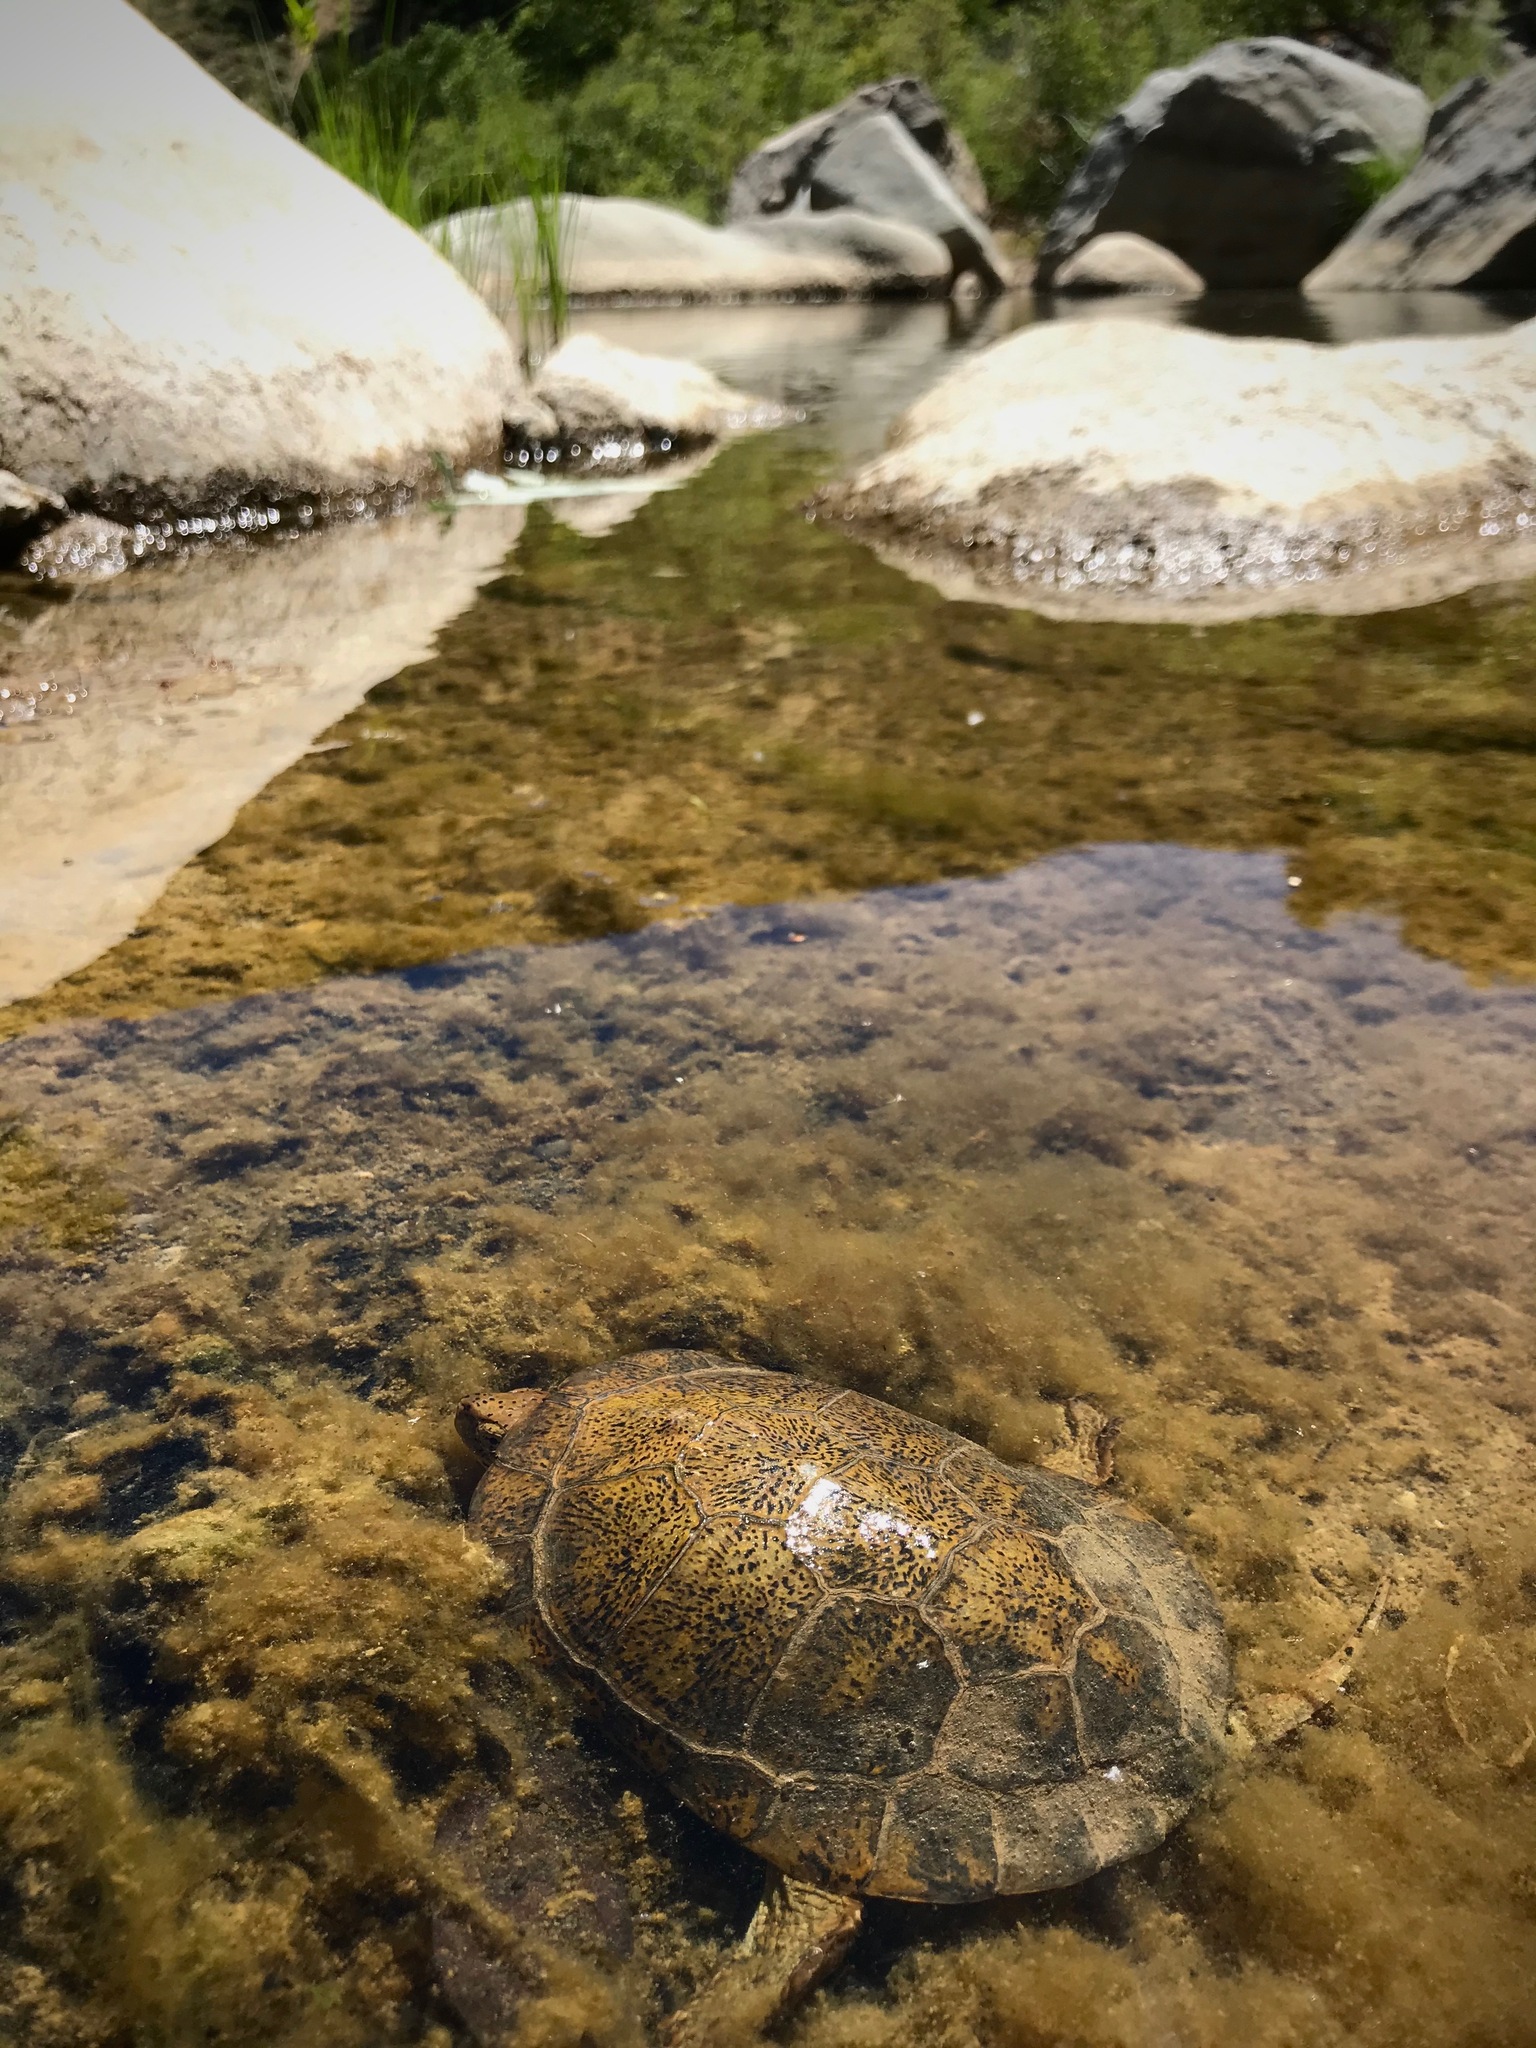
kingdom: Animalia
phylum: Chordata
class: Testudines
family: Emydidae
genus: Actinemys
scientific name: Actinemys pallida
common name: Southern pacific pond turtle
